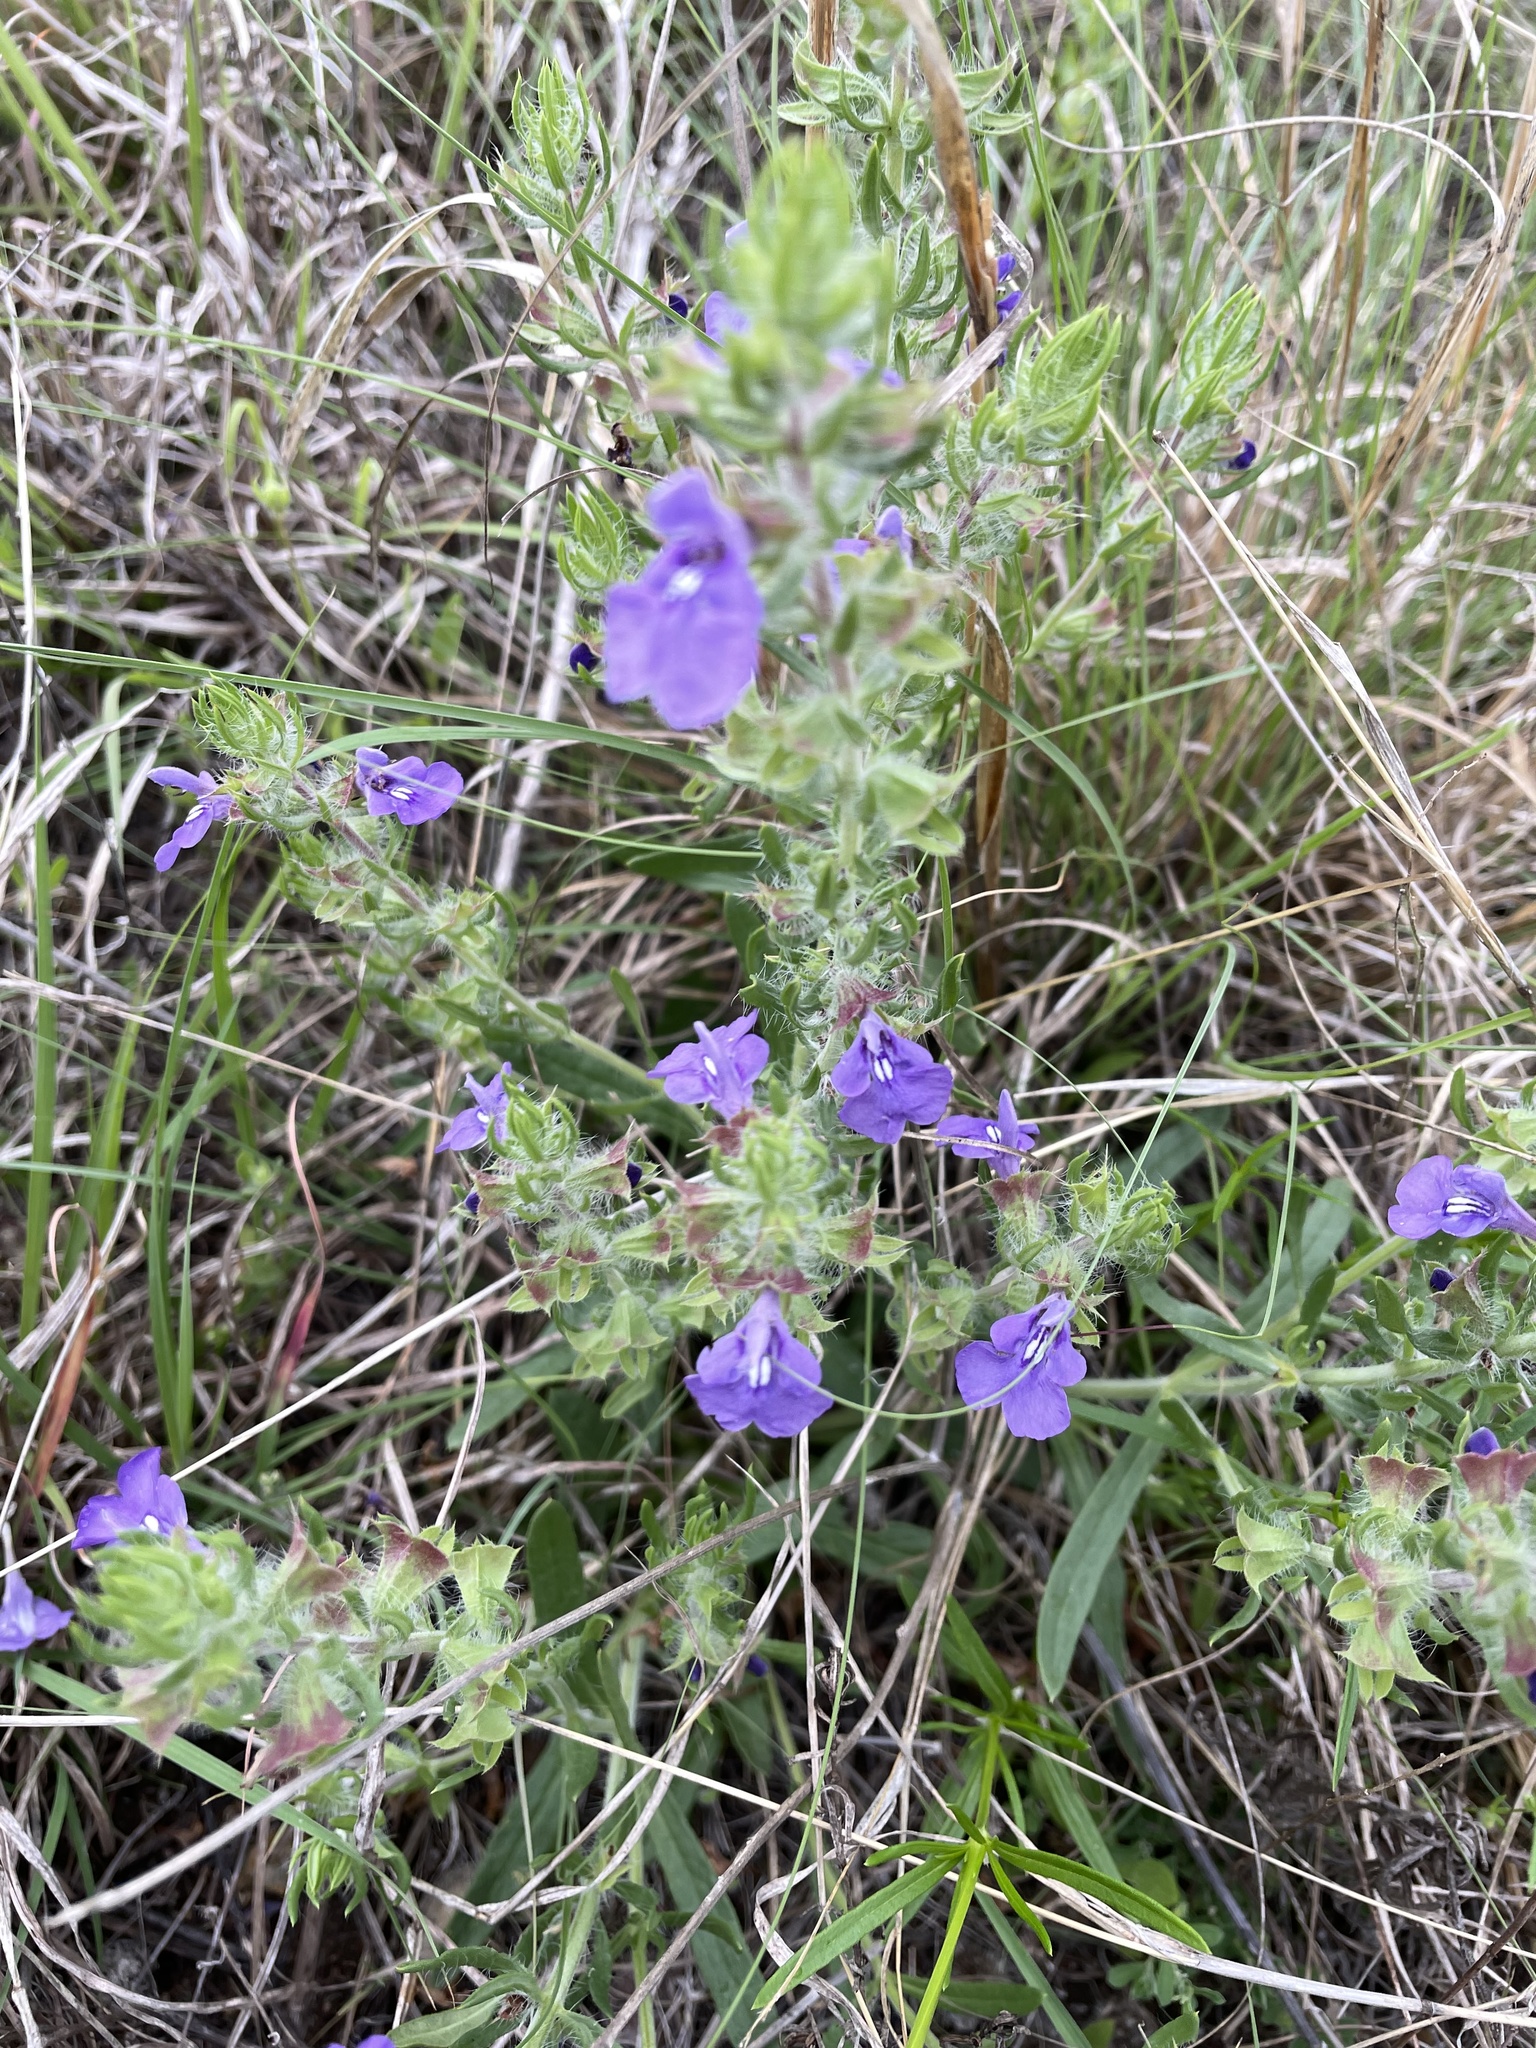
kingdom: Plantae
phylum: Tracheophyta
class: Magnoliopsida
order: Lamiales
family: Lamiaceae
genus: Salvia
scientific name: Salvia texana
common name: Texas sage
